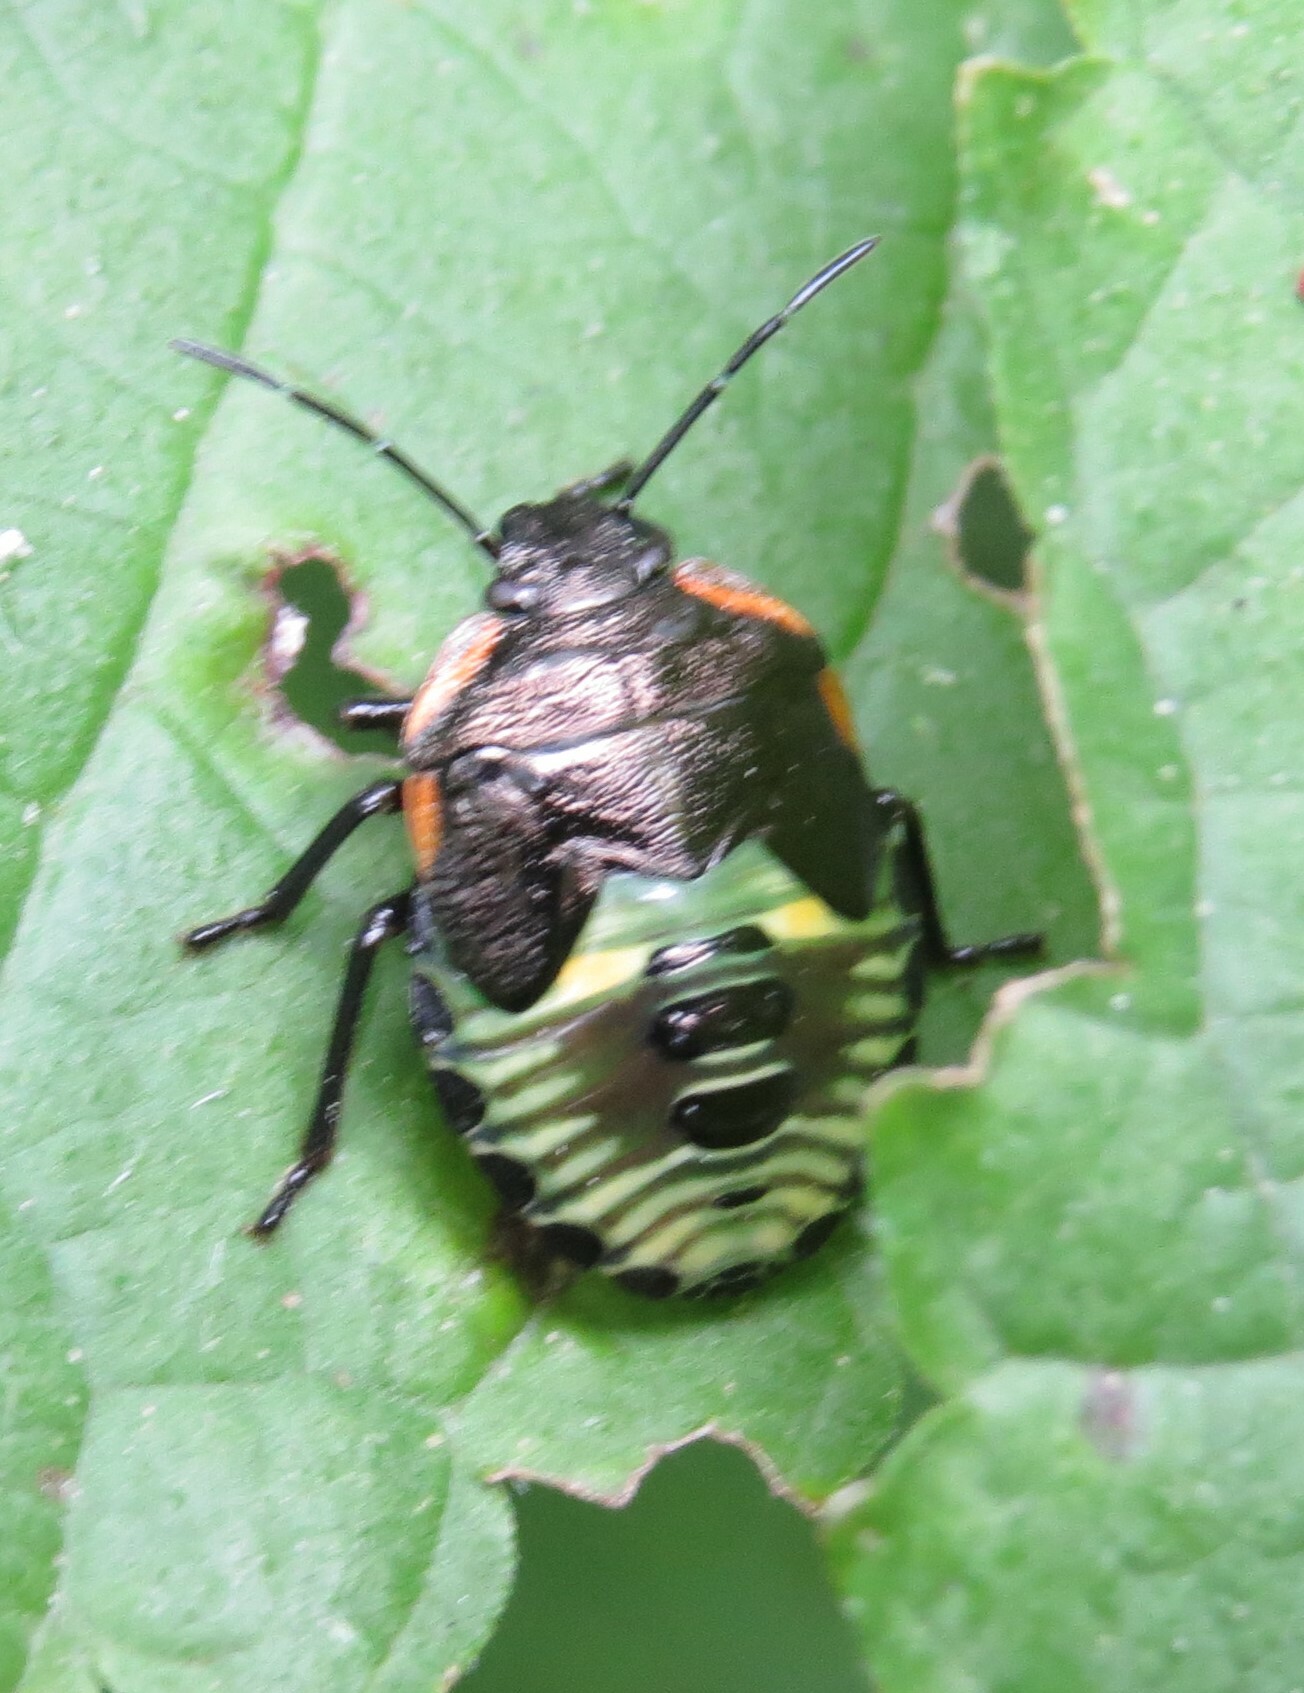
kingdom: Animalia
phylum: Arthropoda
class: Insecta
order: Hemiptera
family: Pentatomidae
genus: Chinavia
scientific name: Chinavia hilaris
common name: Green stink bug
